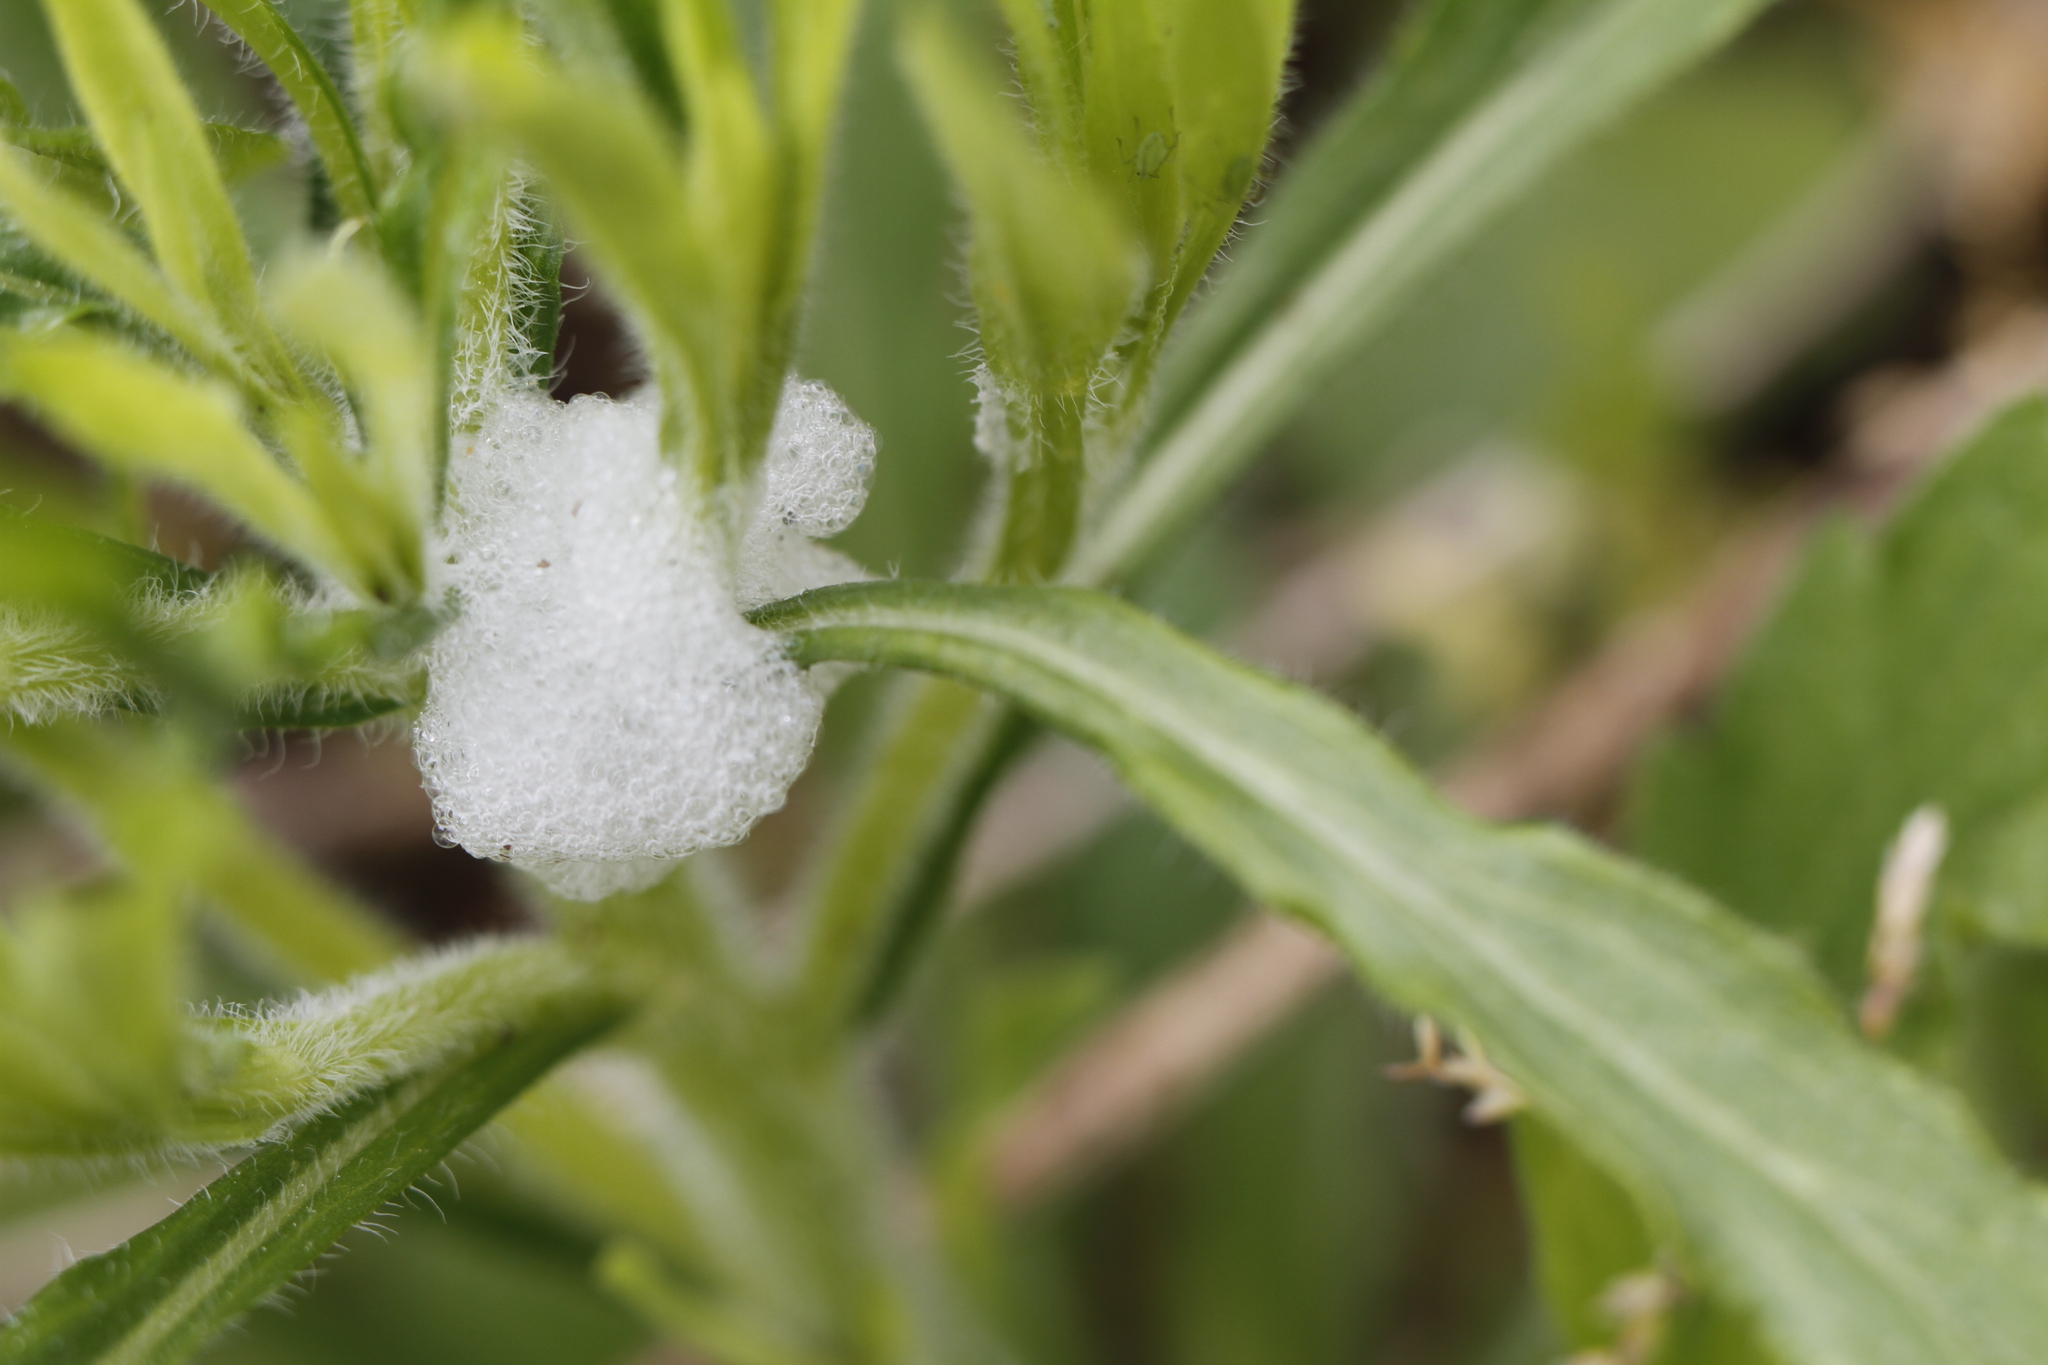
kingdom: Animalia
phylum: Arthropoda
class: Insecta
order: Hemiptera
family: Aphrophoridae
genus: Philaenus
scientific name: Philaenus spumarius
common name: Meadow spittlebug
